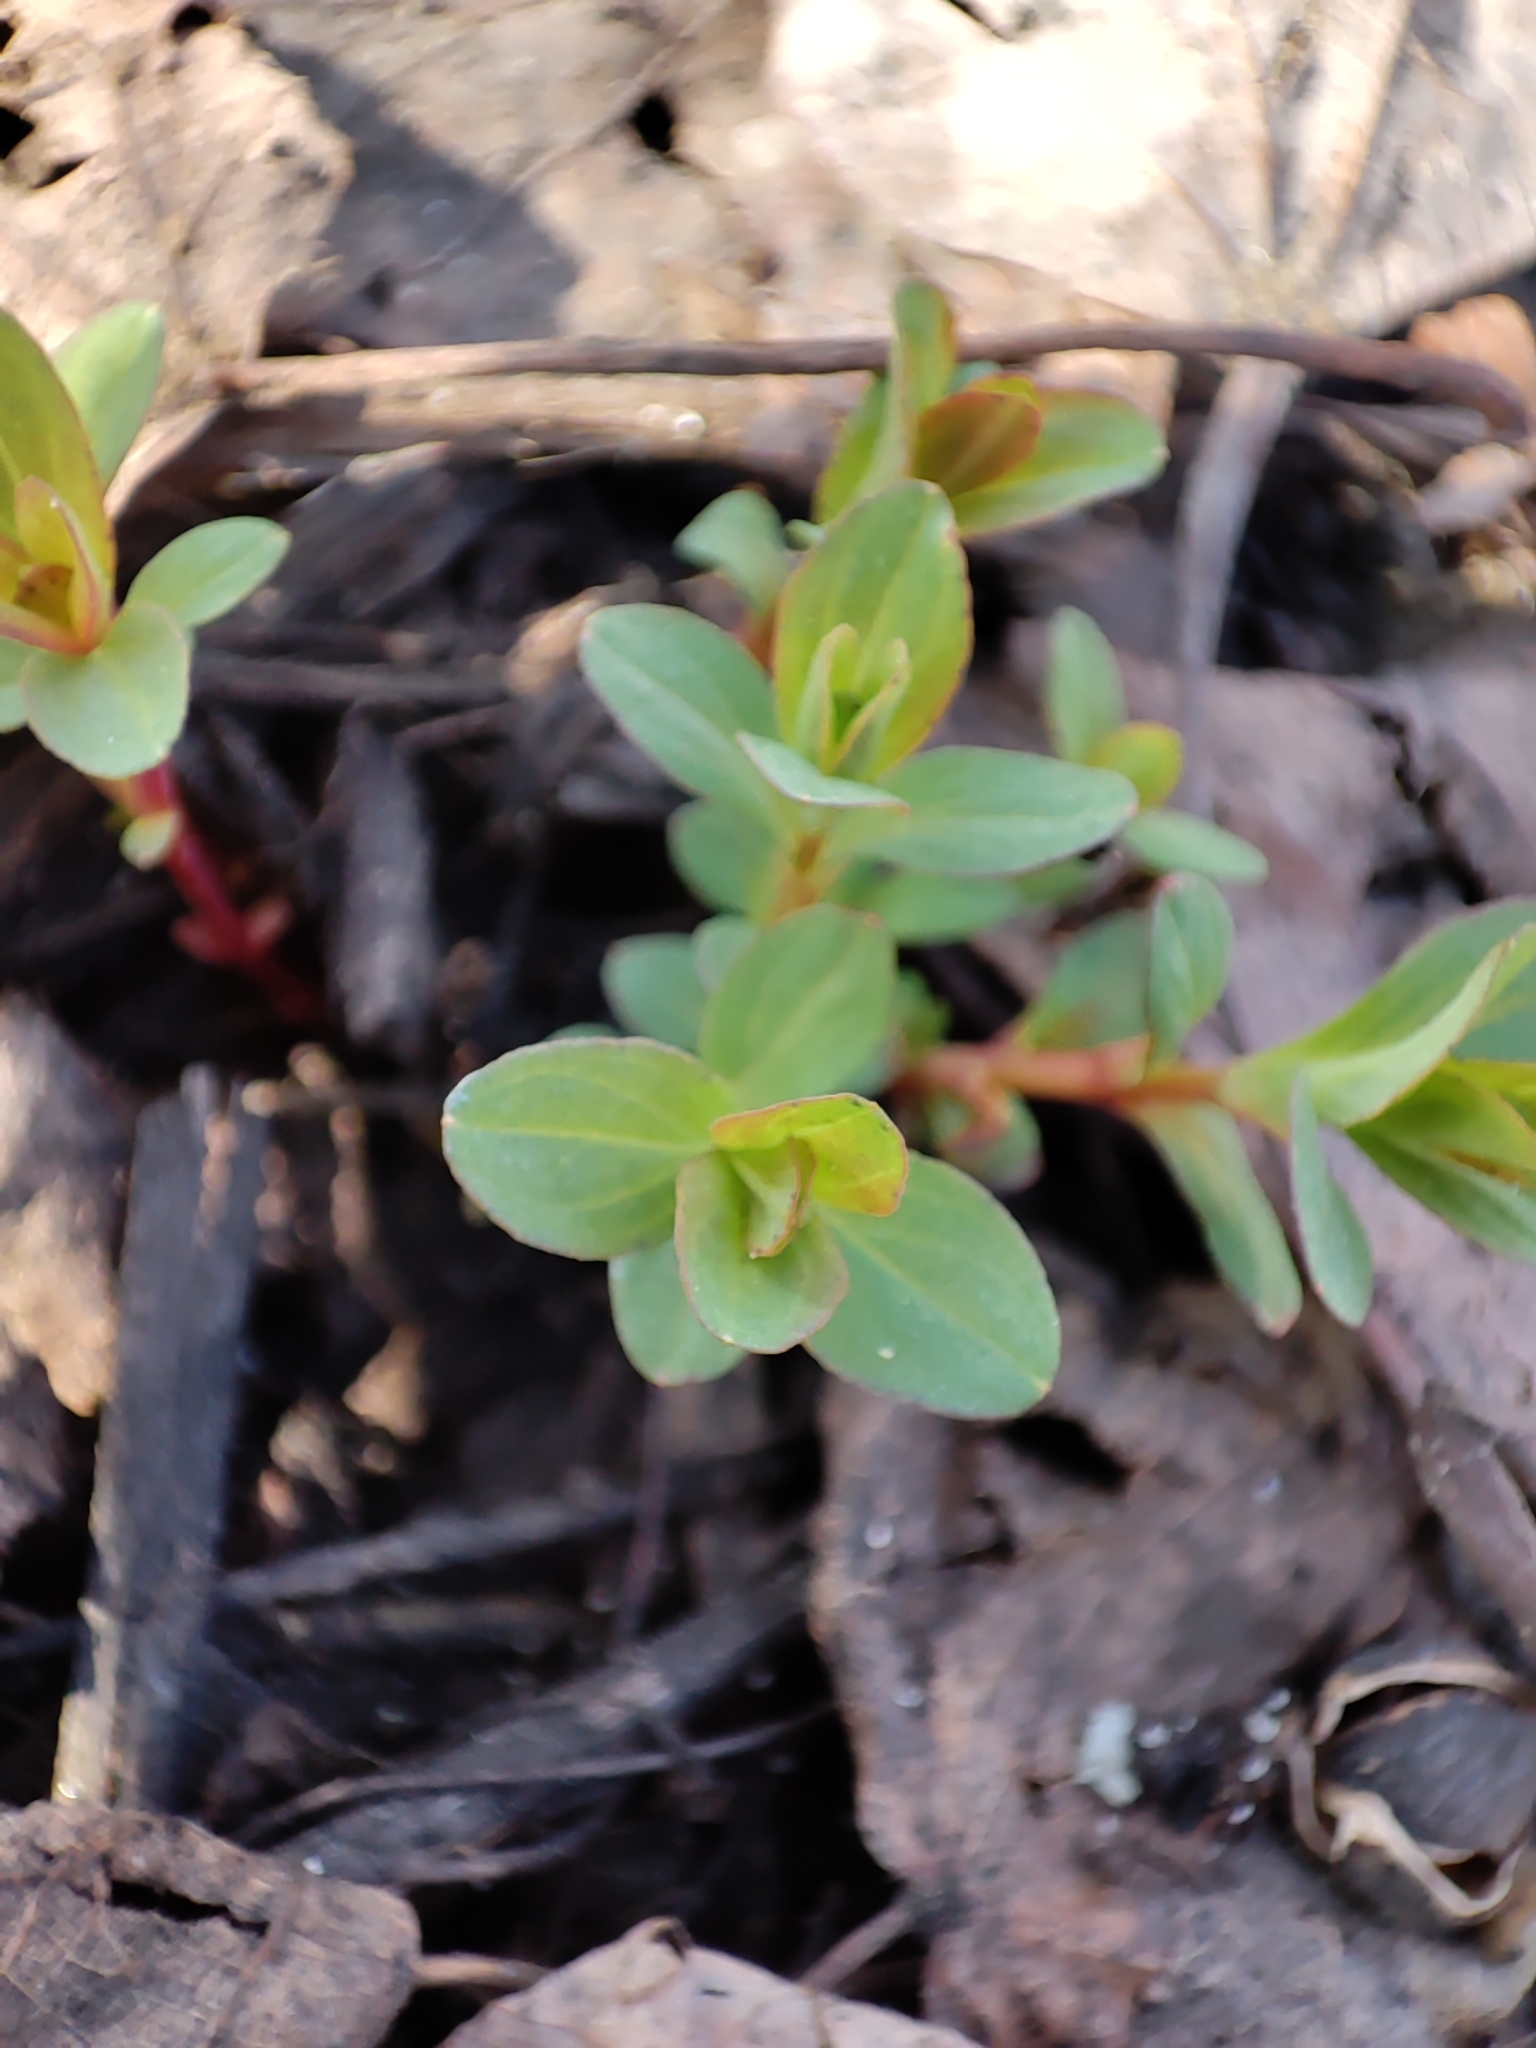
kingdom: Plantae
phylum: Tracheophyta
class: Magnoliopsida
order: Malpighiales
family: Hypericaceae
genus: Hypericum
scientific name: Hypericum perforatum
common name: Common st. johnswort
